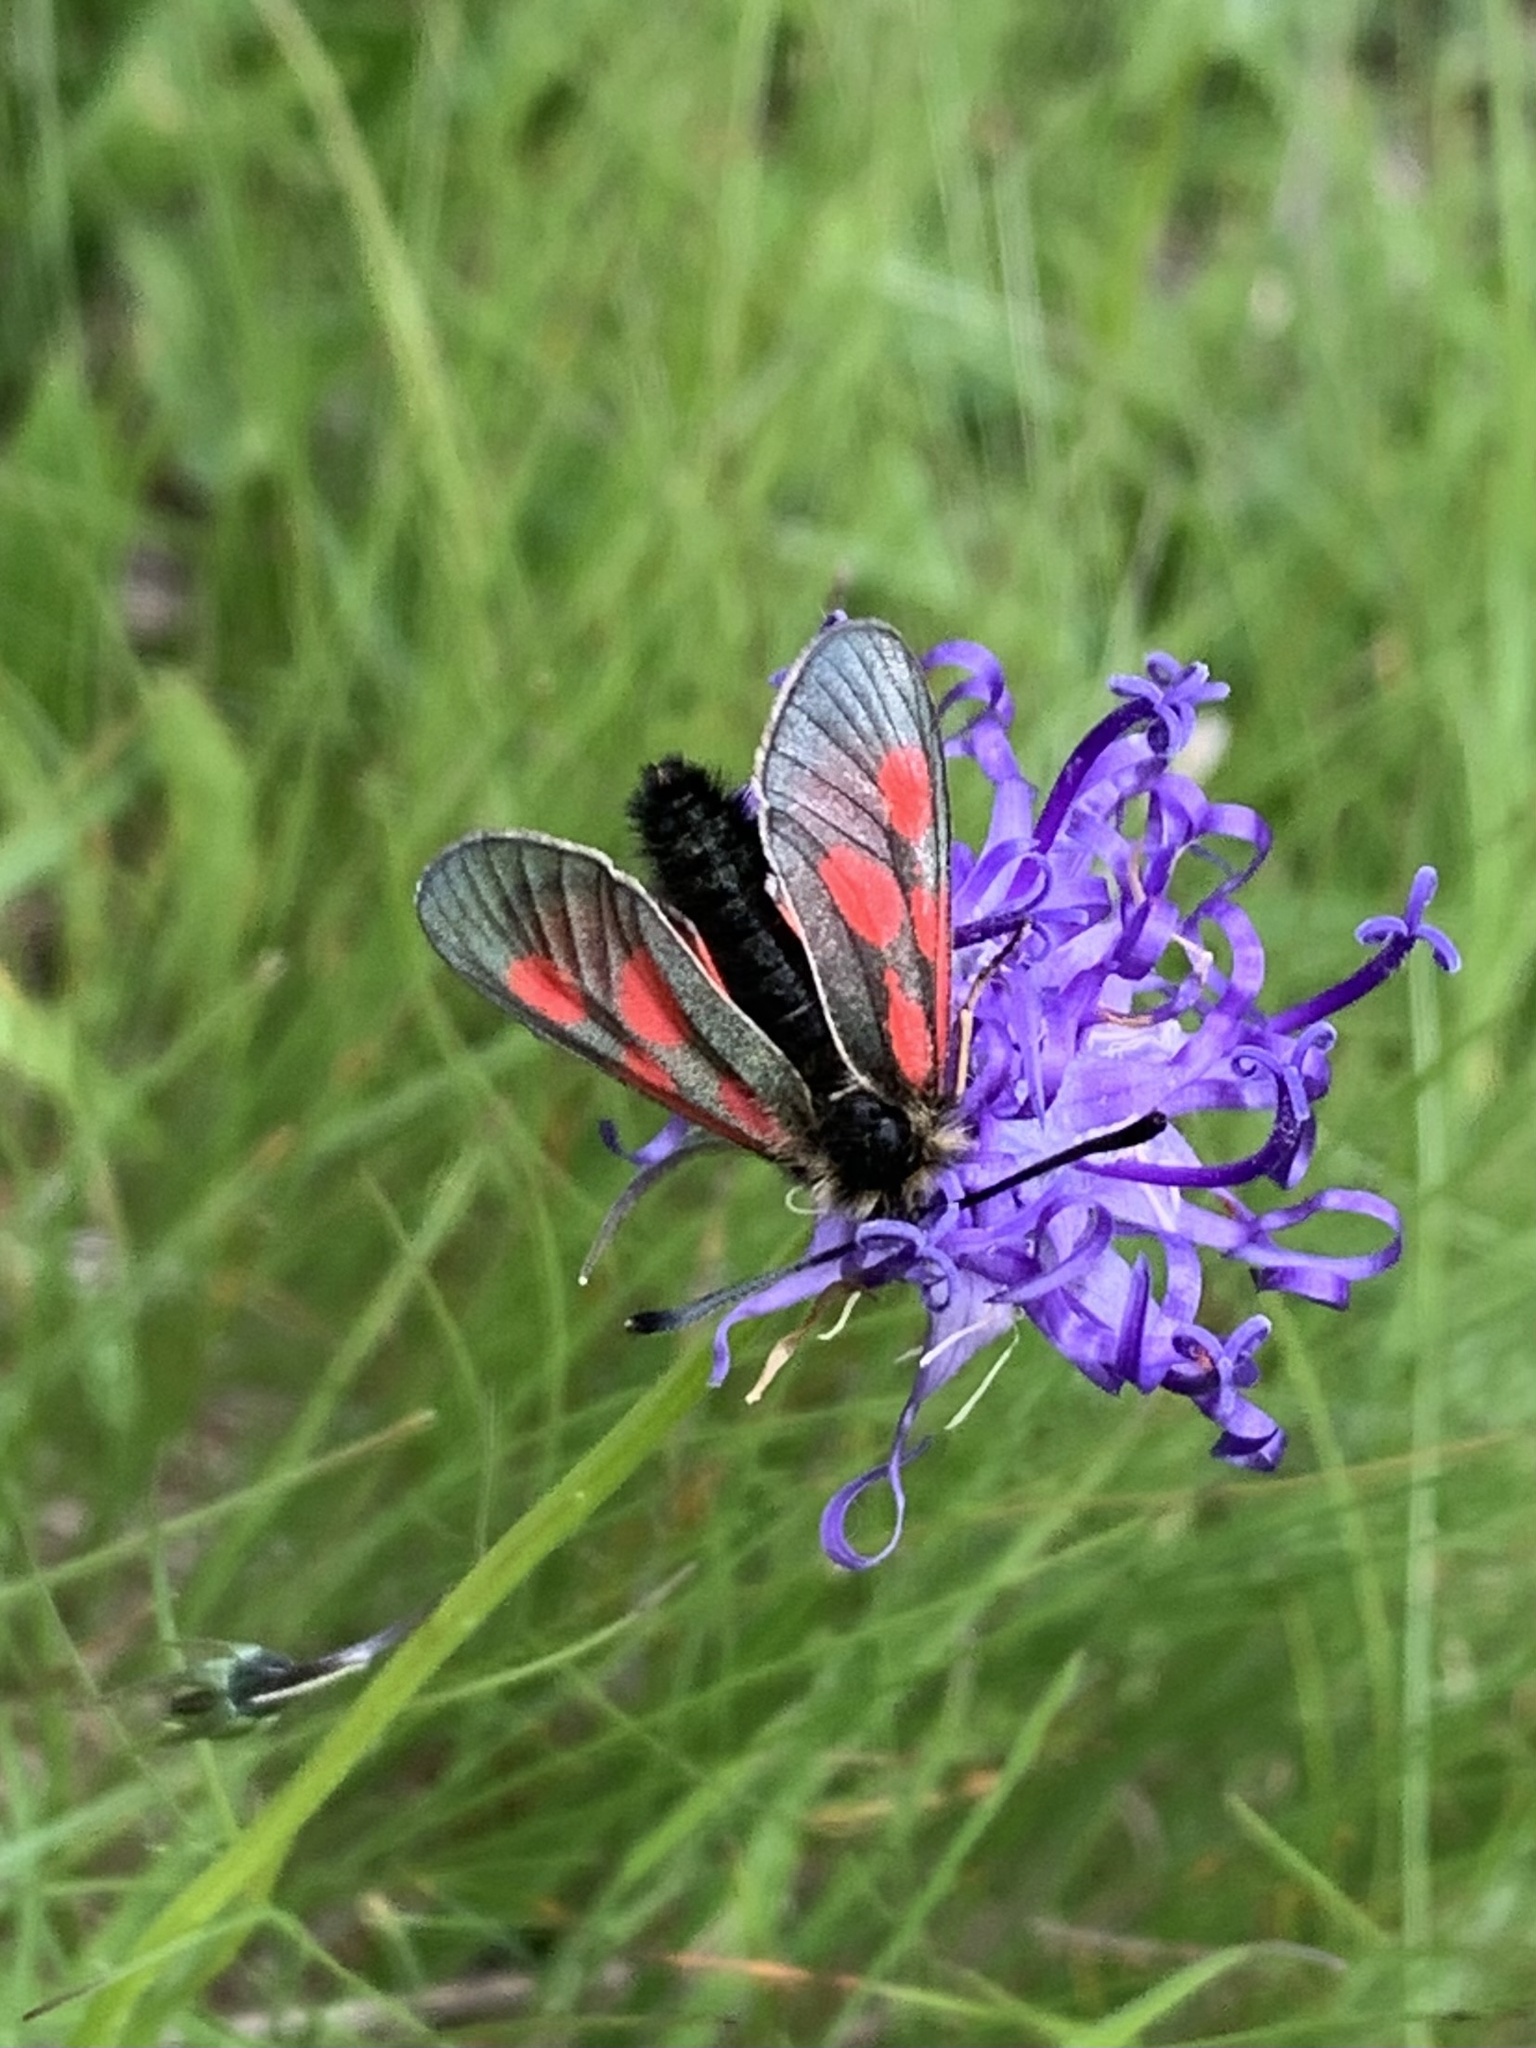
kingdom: Animalia
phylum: Arthropoda
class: Insecta
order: Lepidoptera
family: Zygaenidae
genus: Zygaena
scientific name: Zygaena exulans
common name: Scotch burnet
